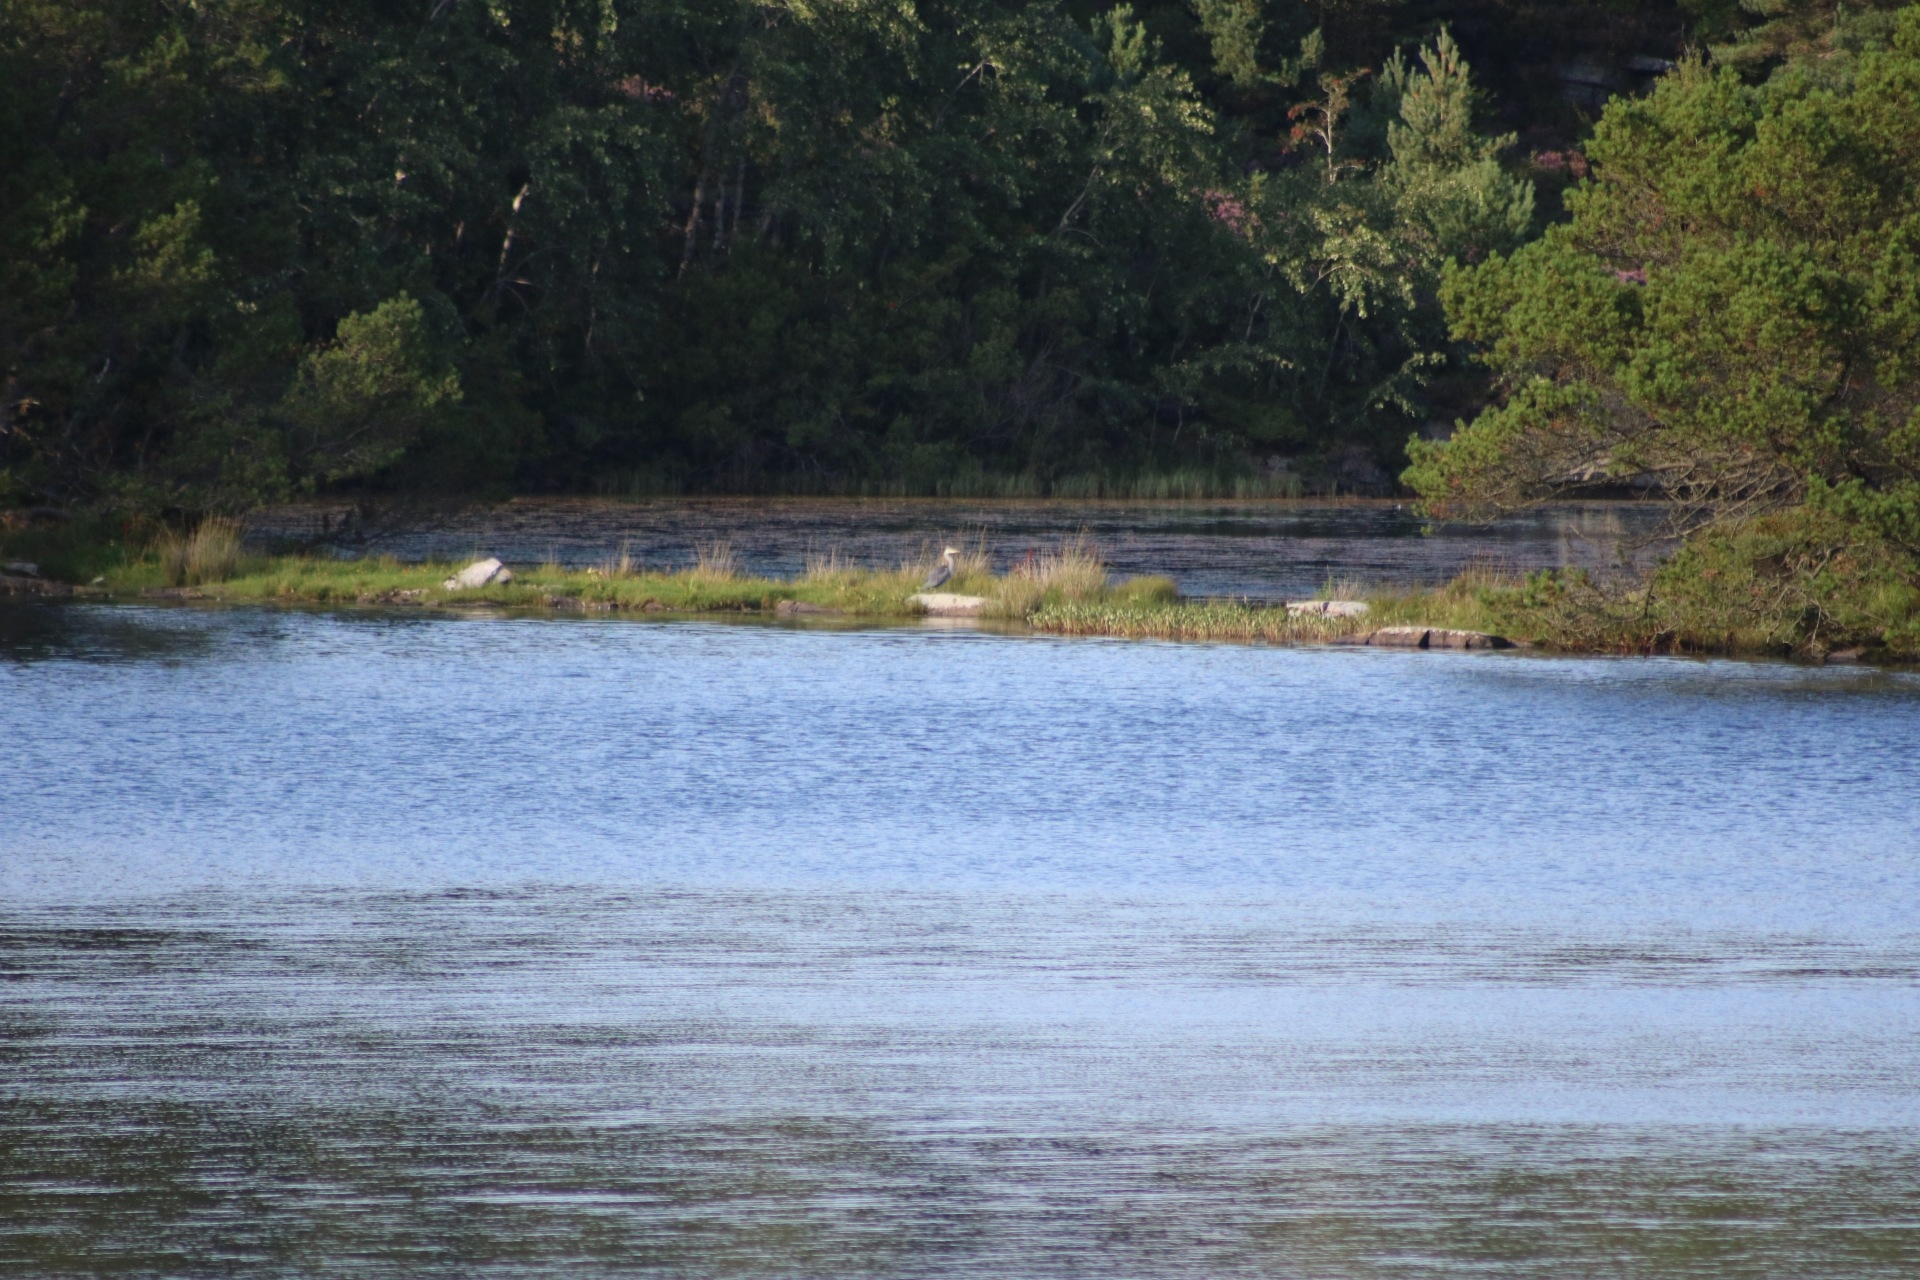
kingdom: Animalia
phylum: Chordata
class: Aves
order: Pelecaniformes
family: Ardeidae
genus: Ardea
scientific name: Ardea cinerea
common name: Grey heron
